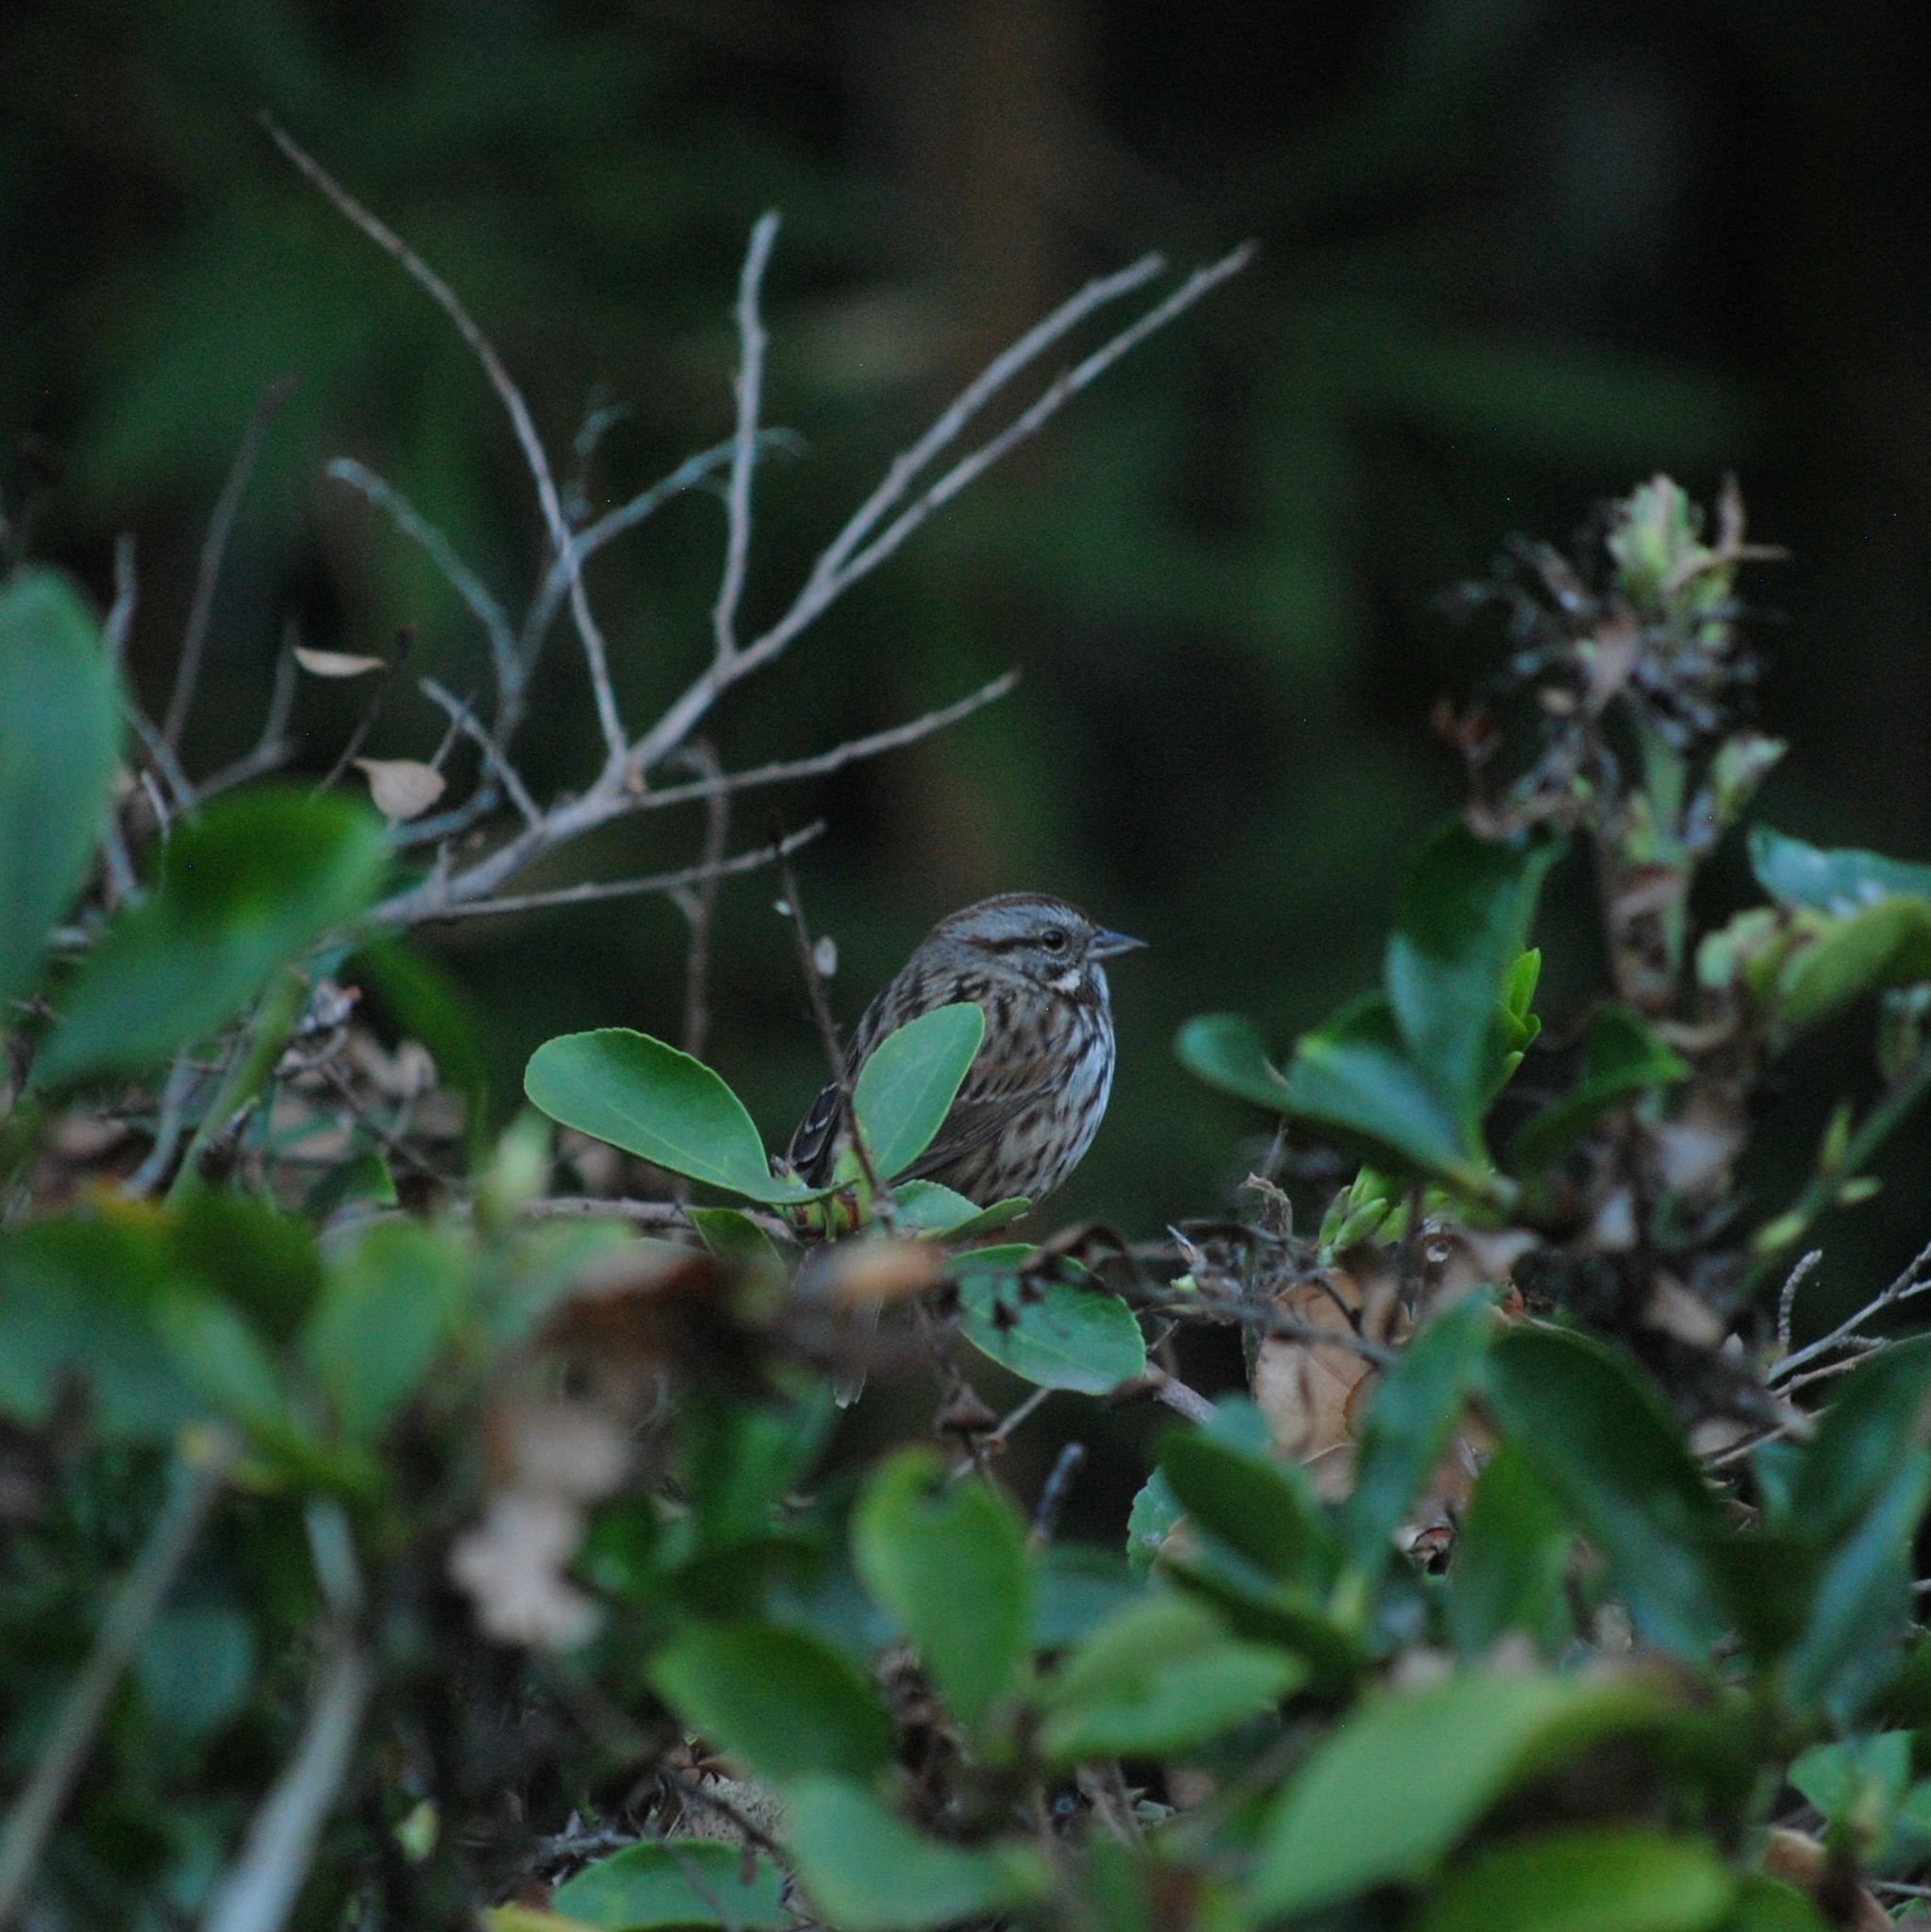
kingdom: Animalia
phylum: Chordata
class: Aves
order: Passeriformes
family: Passerellidae
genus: Melospiza
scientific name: Melospiza melodia
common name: Song sparrow
